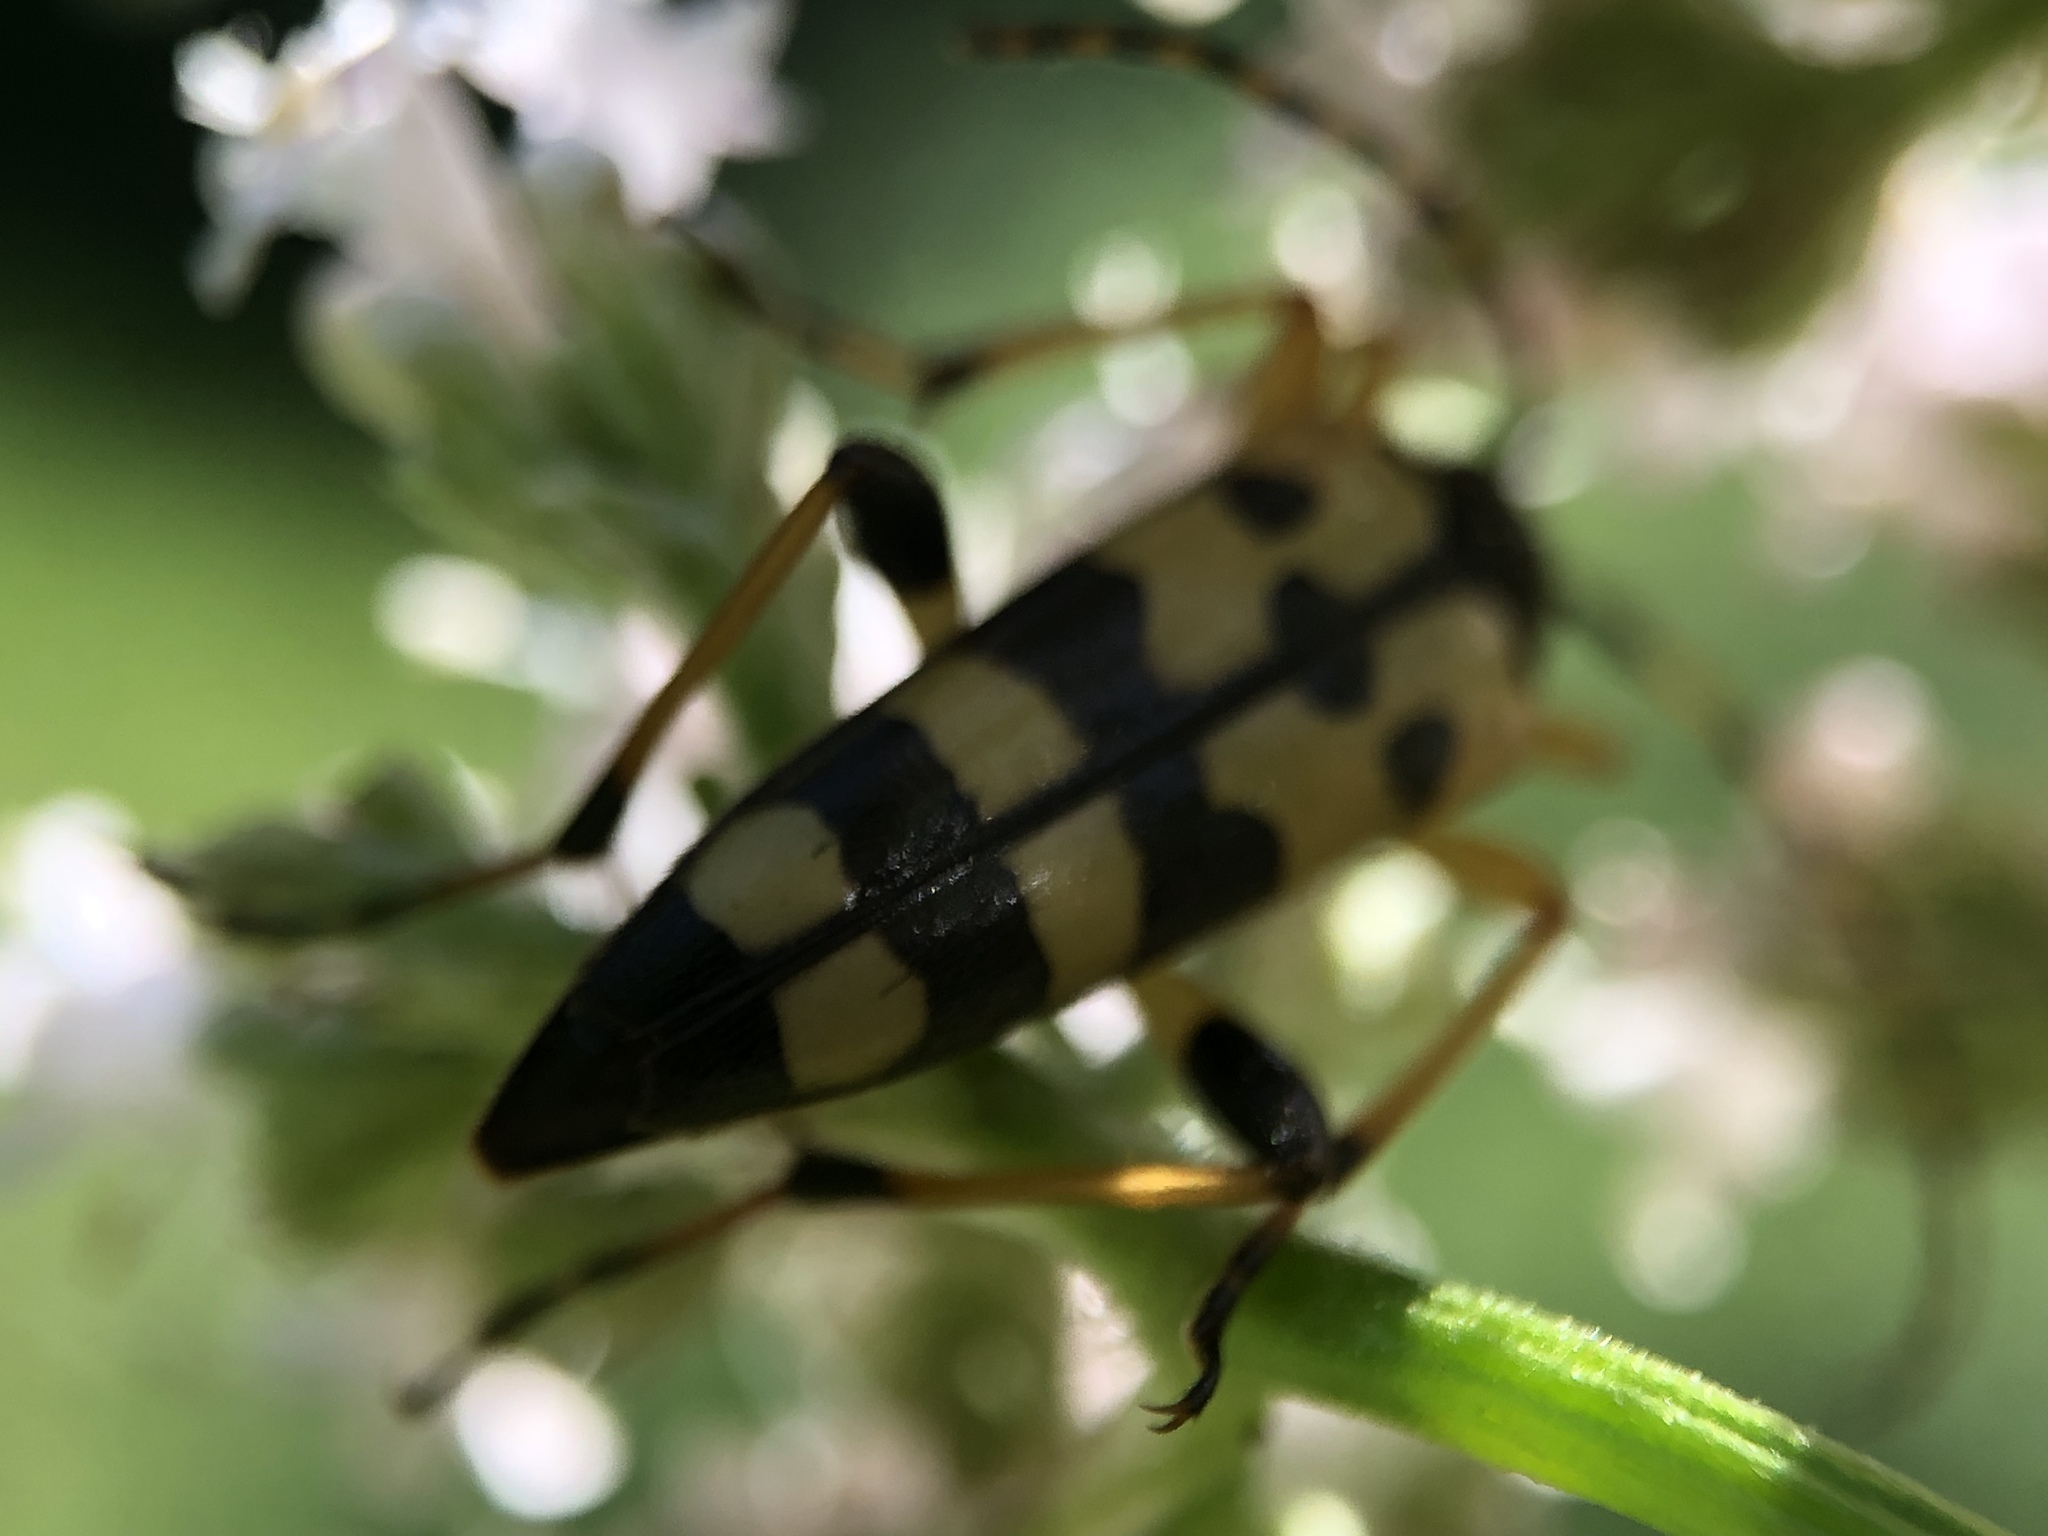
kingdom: Animalia
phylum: Arthropoda
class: Insecta
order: Coleoptera
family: Cerambycidae
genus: Rutpela
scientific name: Rutpela maculata
